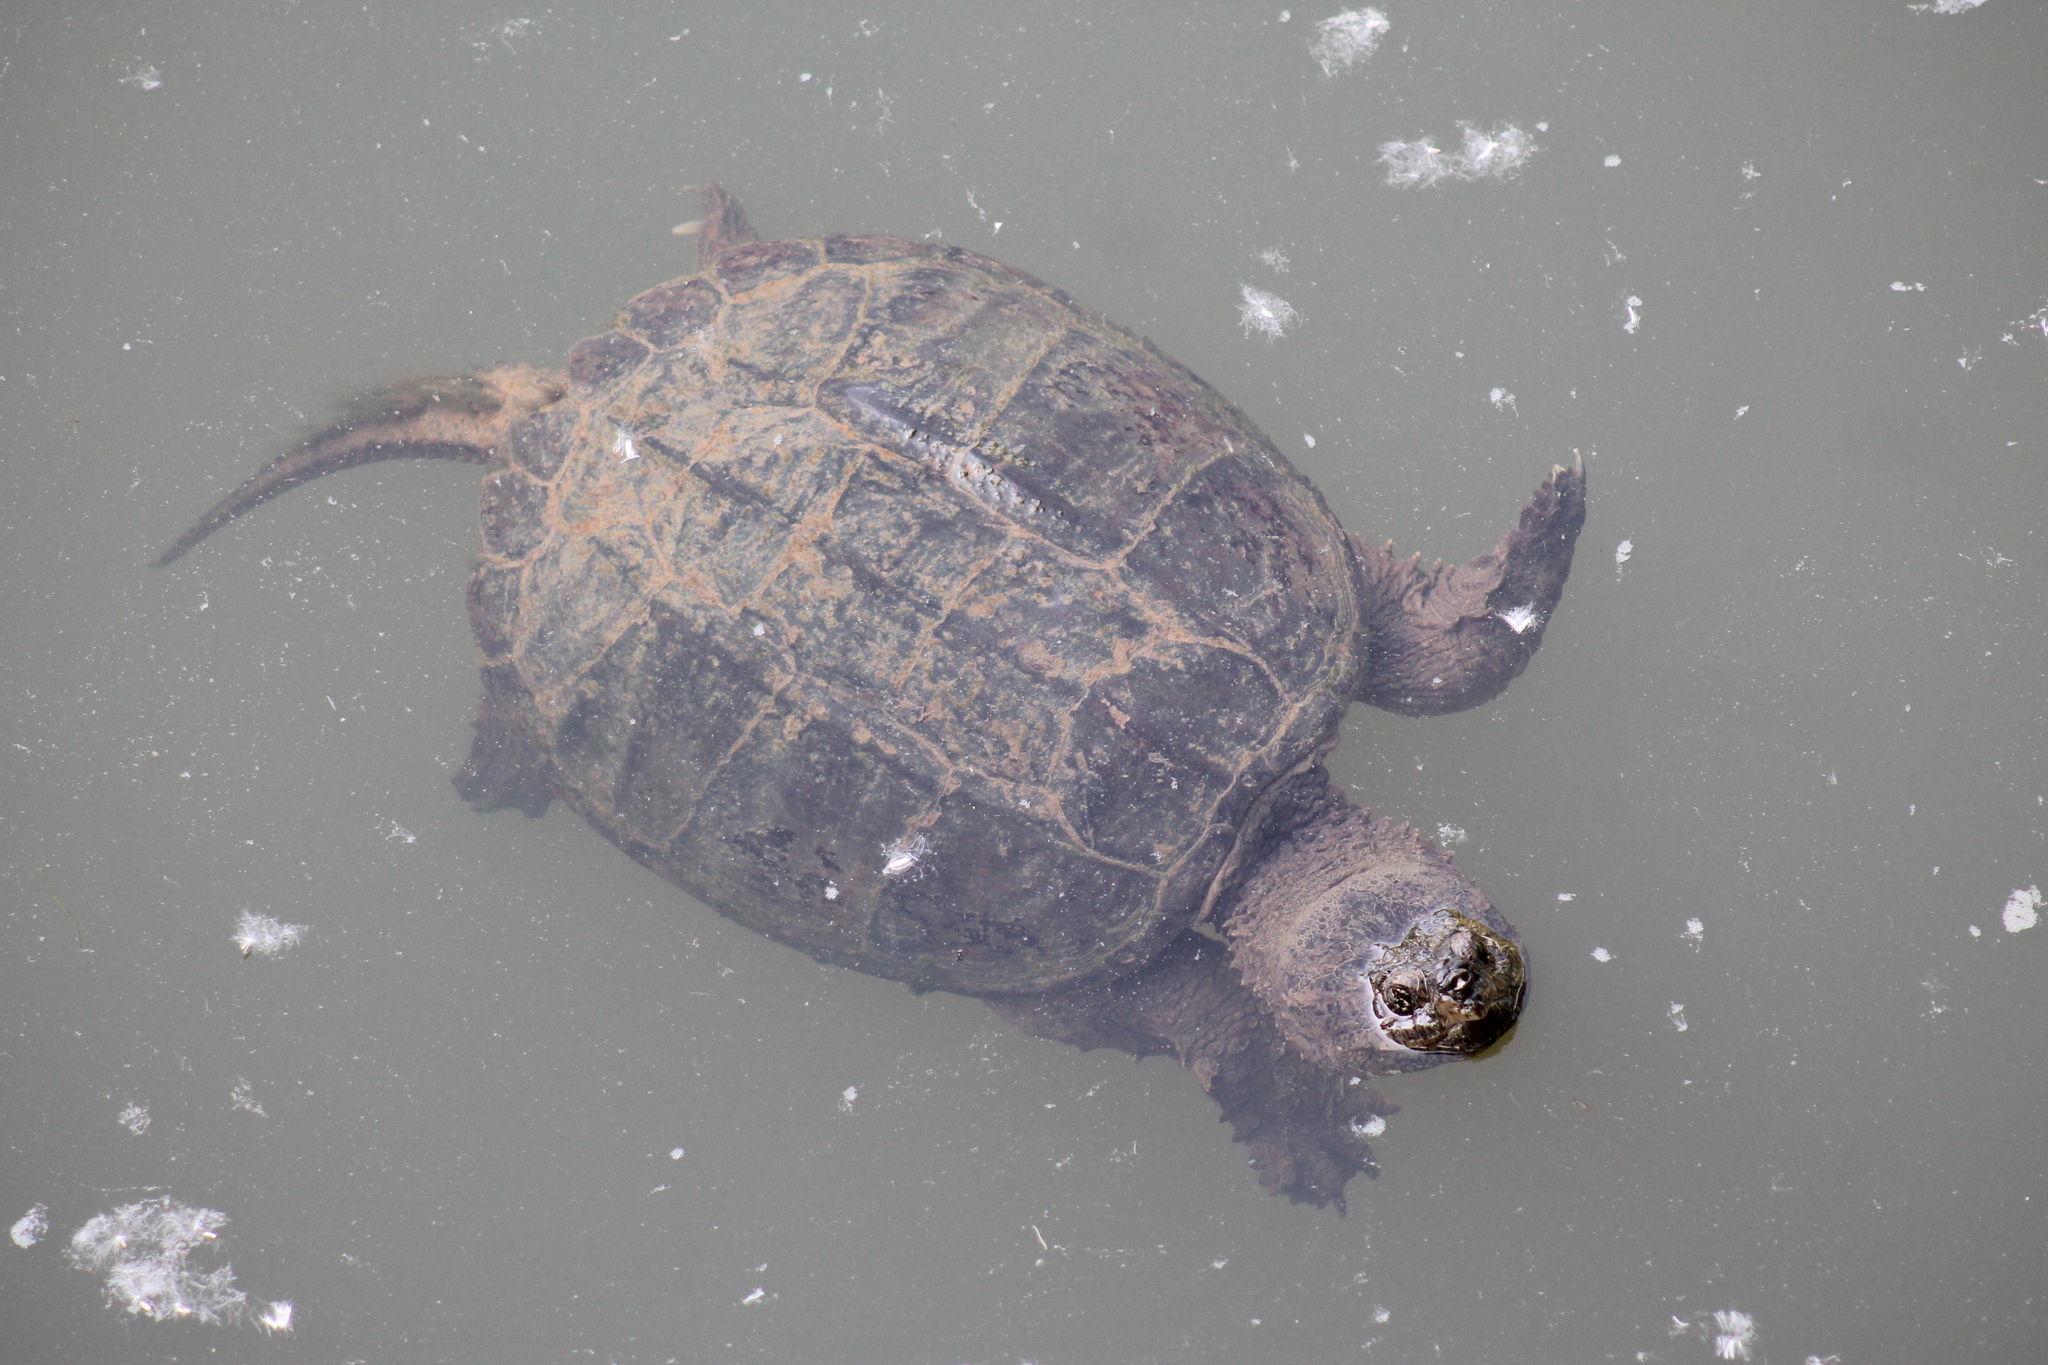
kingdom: Animalia
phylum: Chordata
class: Testudines
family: Chelydridae
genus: Chelydra
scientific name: Chelydra serpentina
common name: Common snapping turtle
